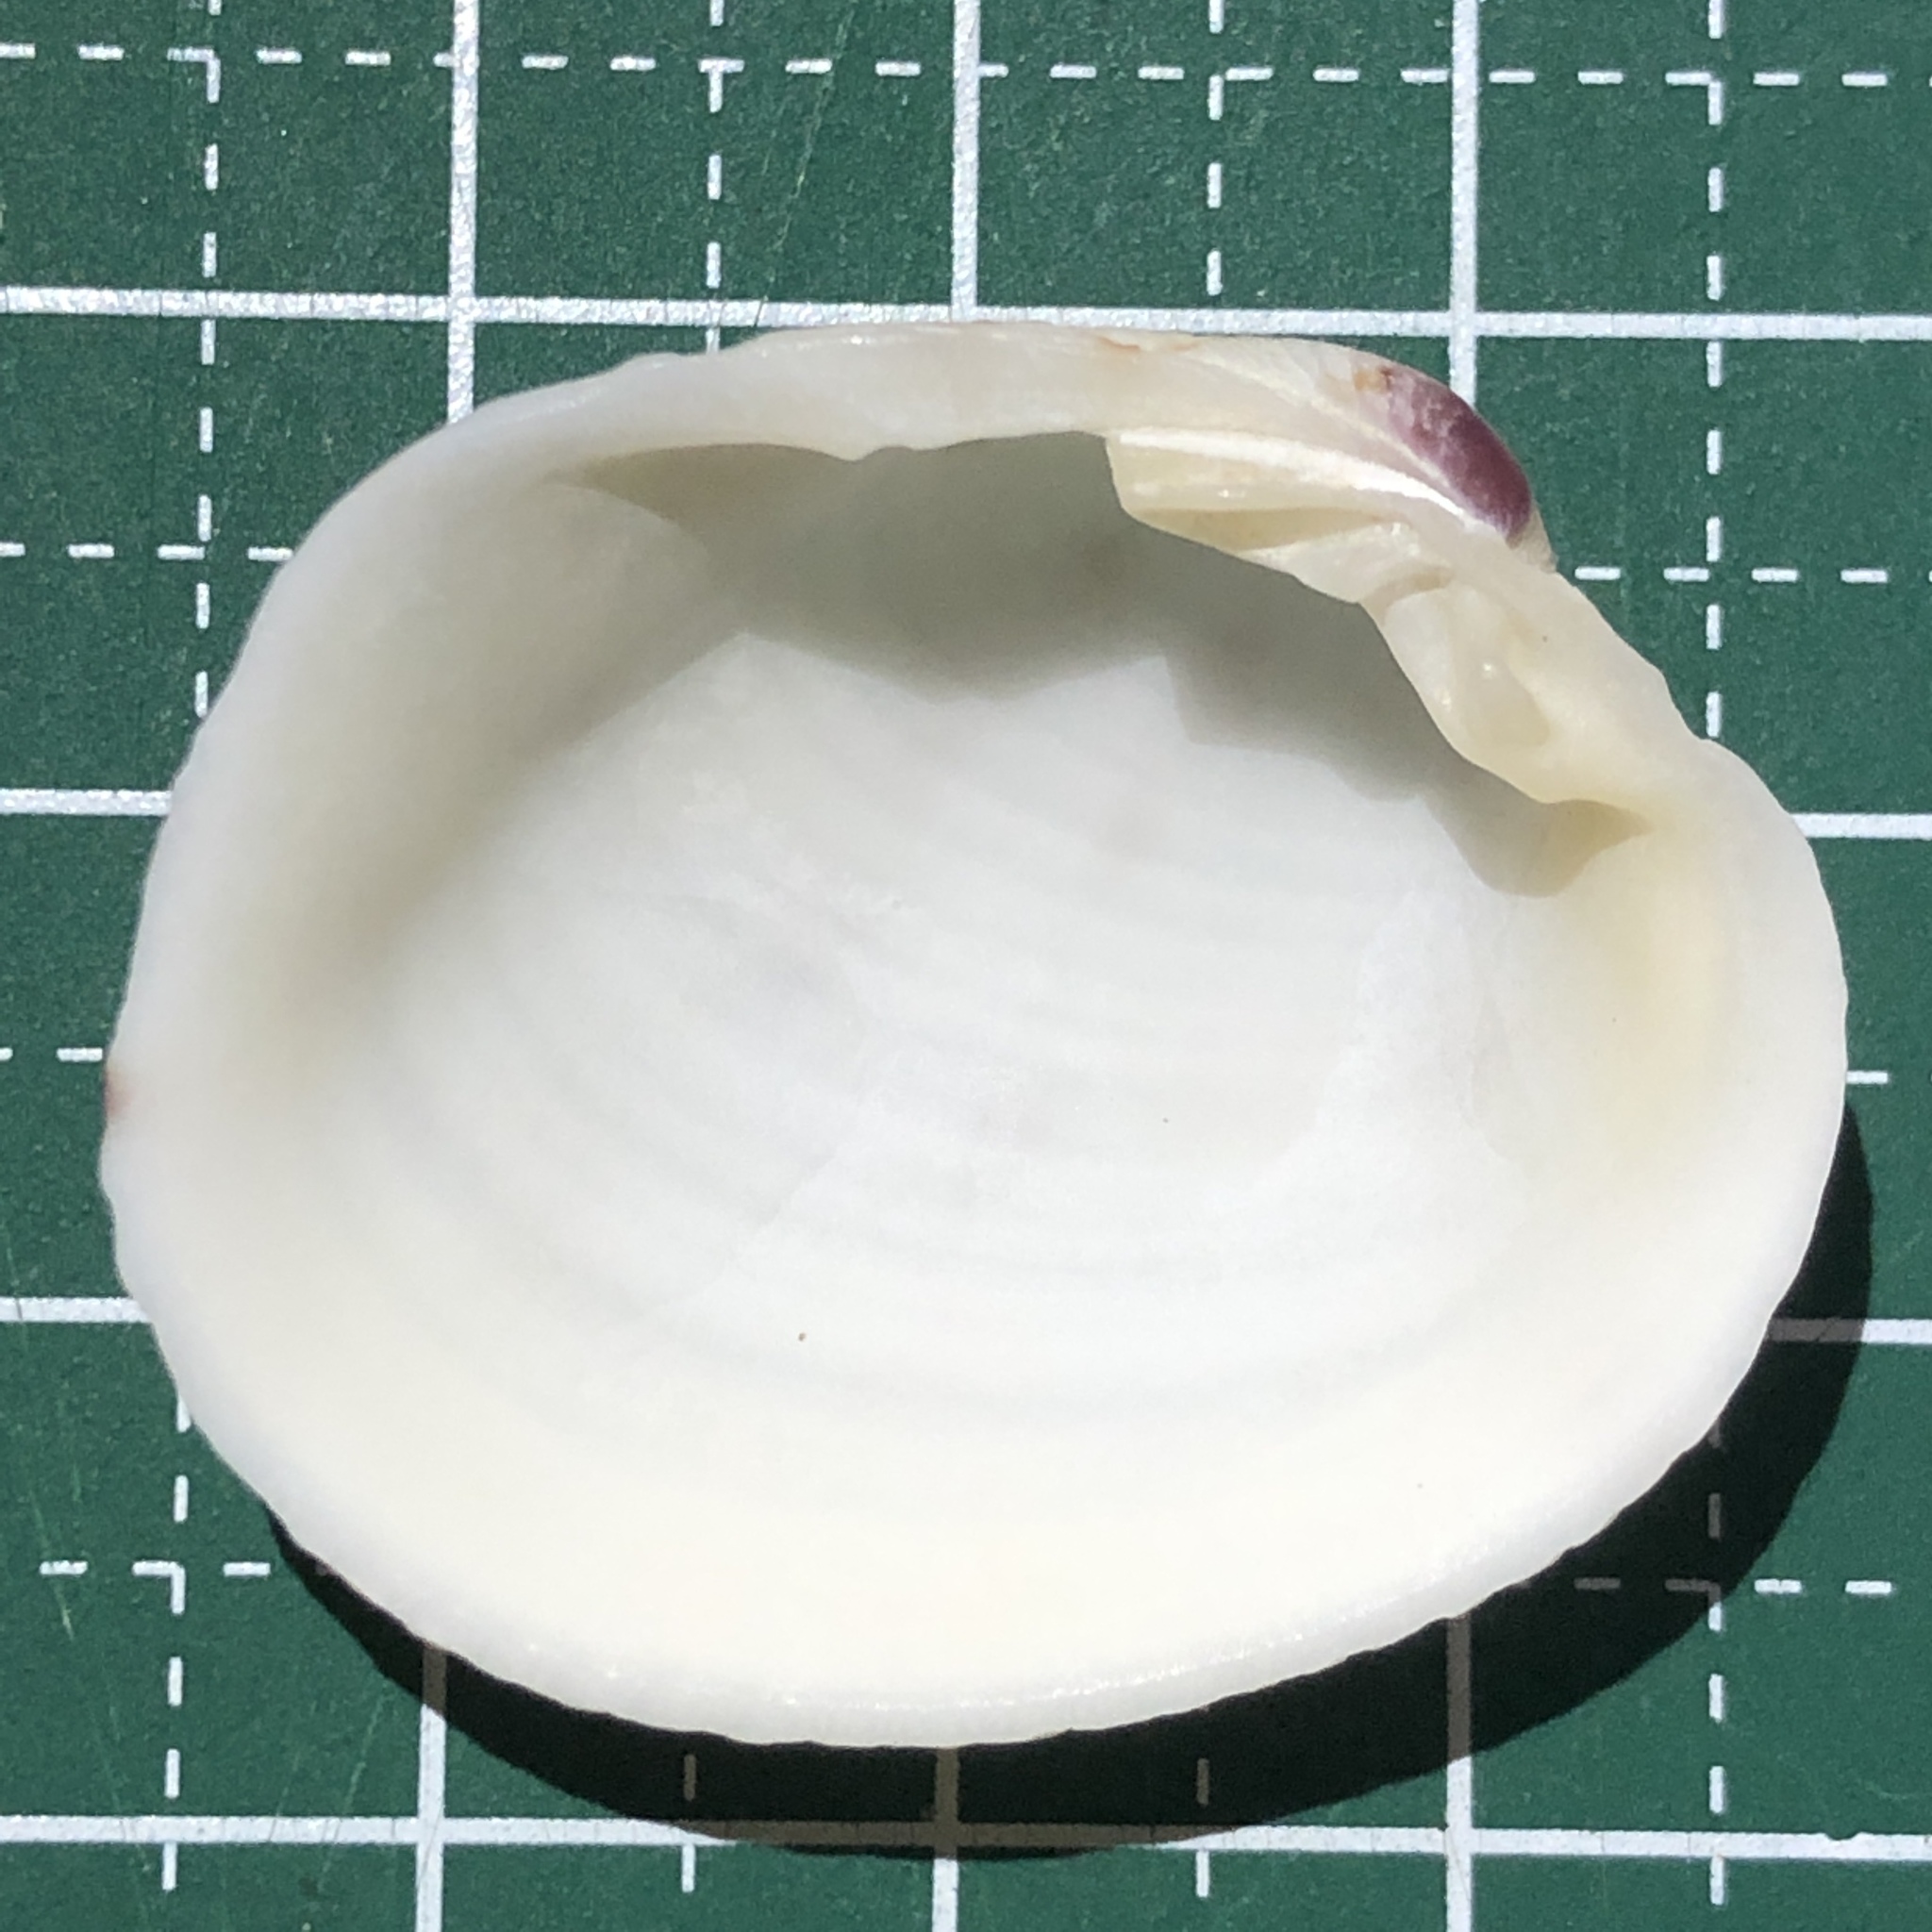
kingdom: Animalia
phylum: Mollusca
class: Bivalvia
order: Venerida
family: Veneridae
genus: Antigona
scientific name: Antigona chemnitzii
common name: Chemnitz's venus
